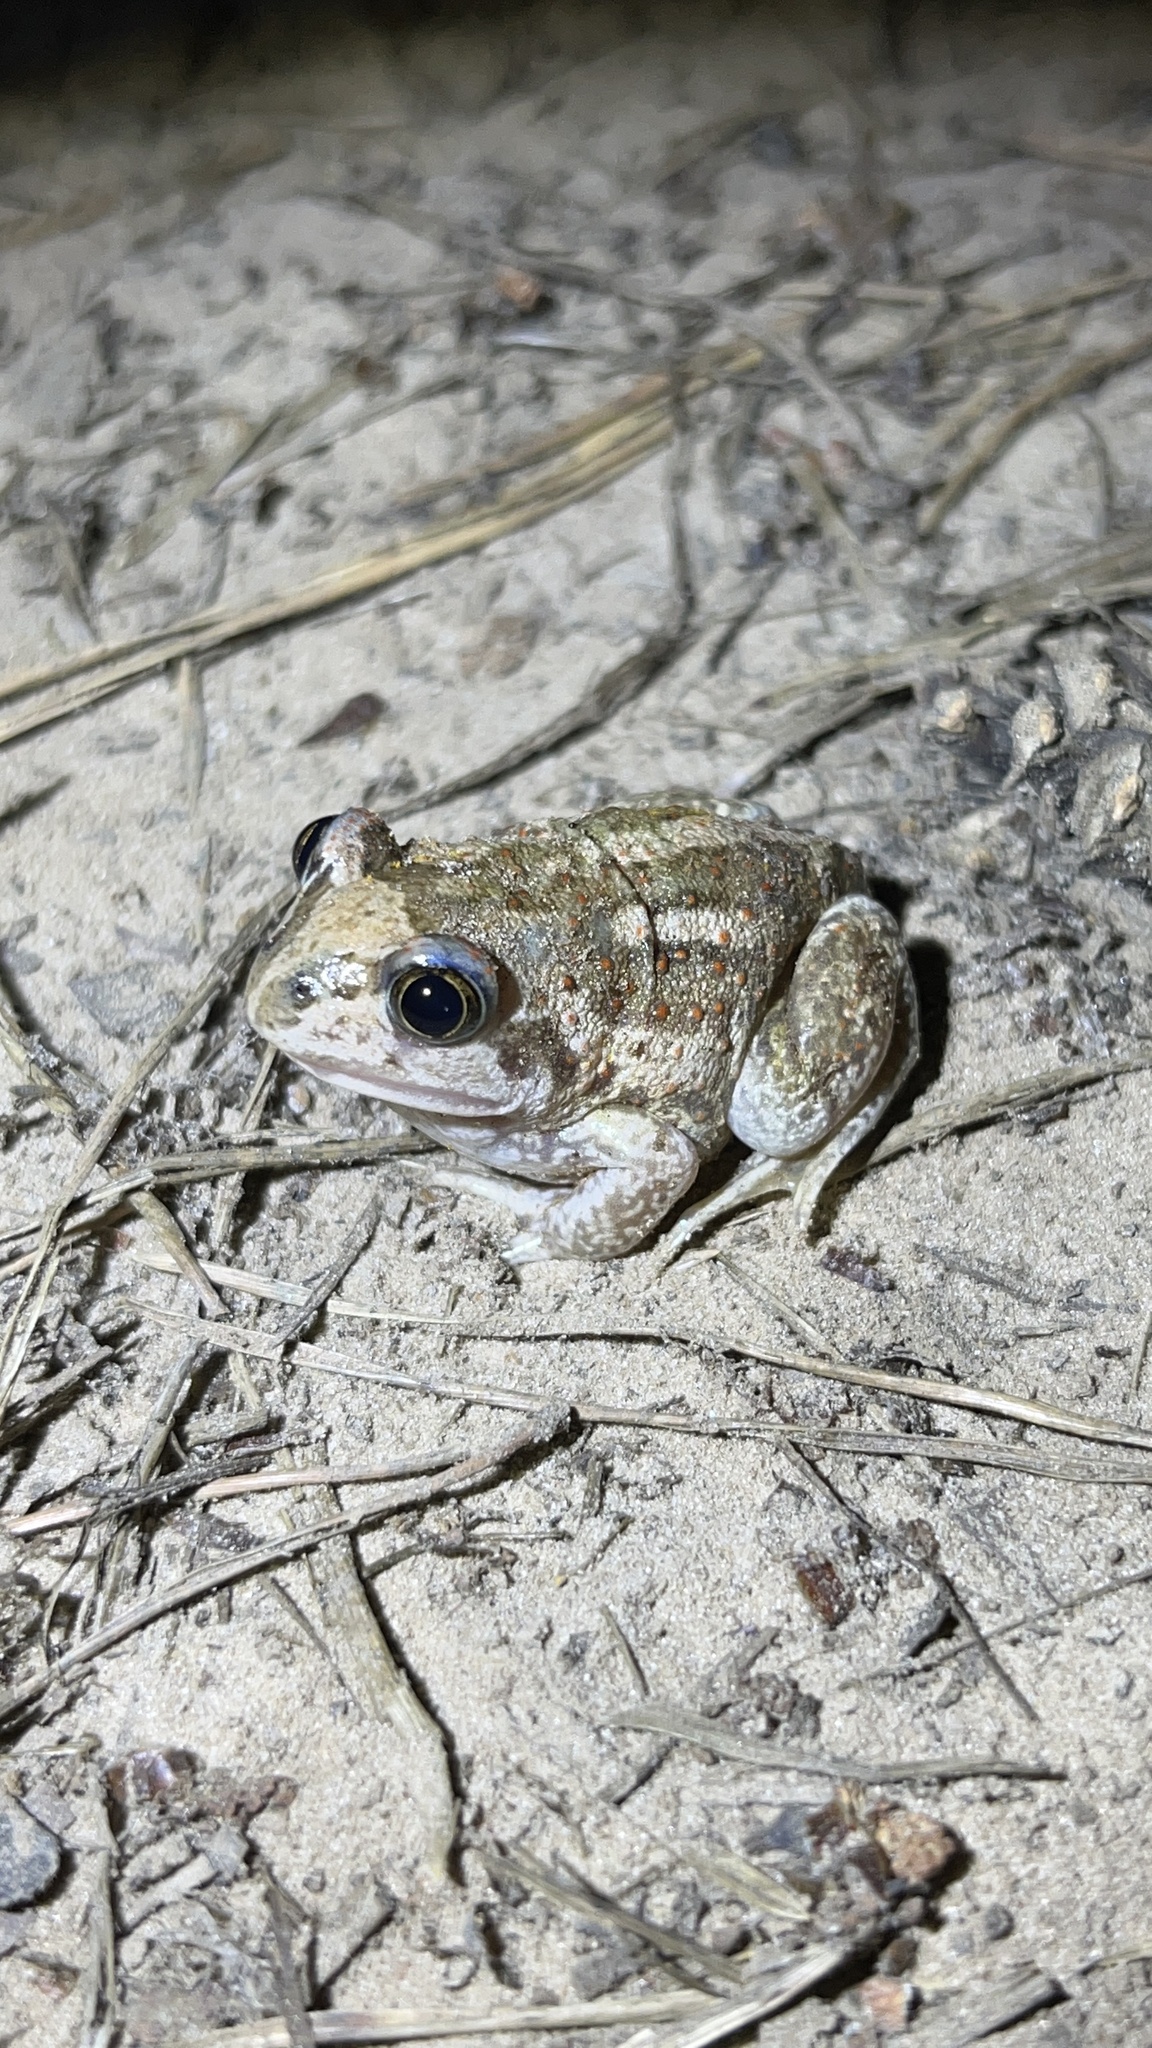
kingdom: Animalia
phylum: Chordata
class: Amphibia
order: Anura
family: Pelobatidae
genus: Pelobates
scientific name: Pelobates vespertinus
